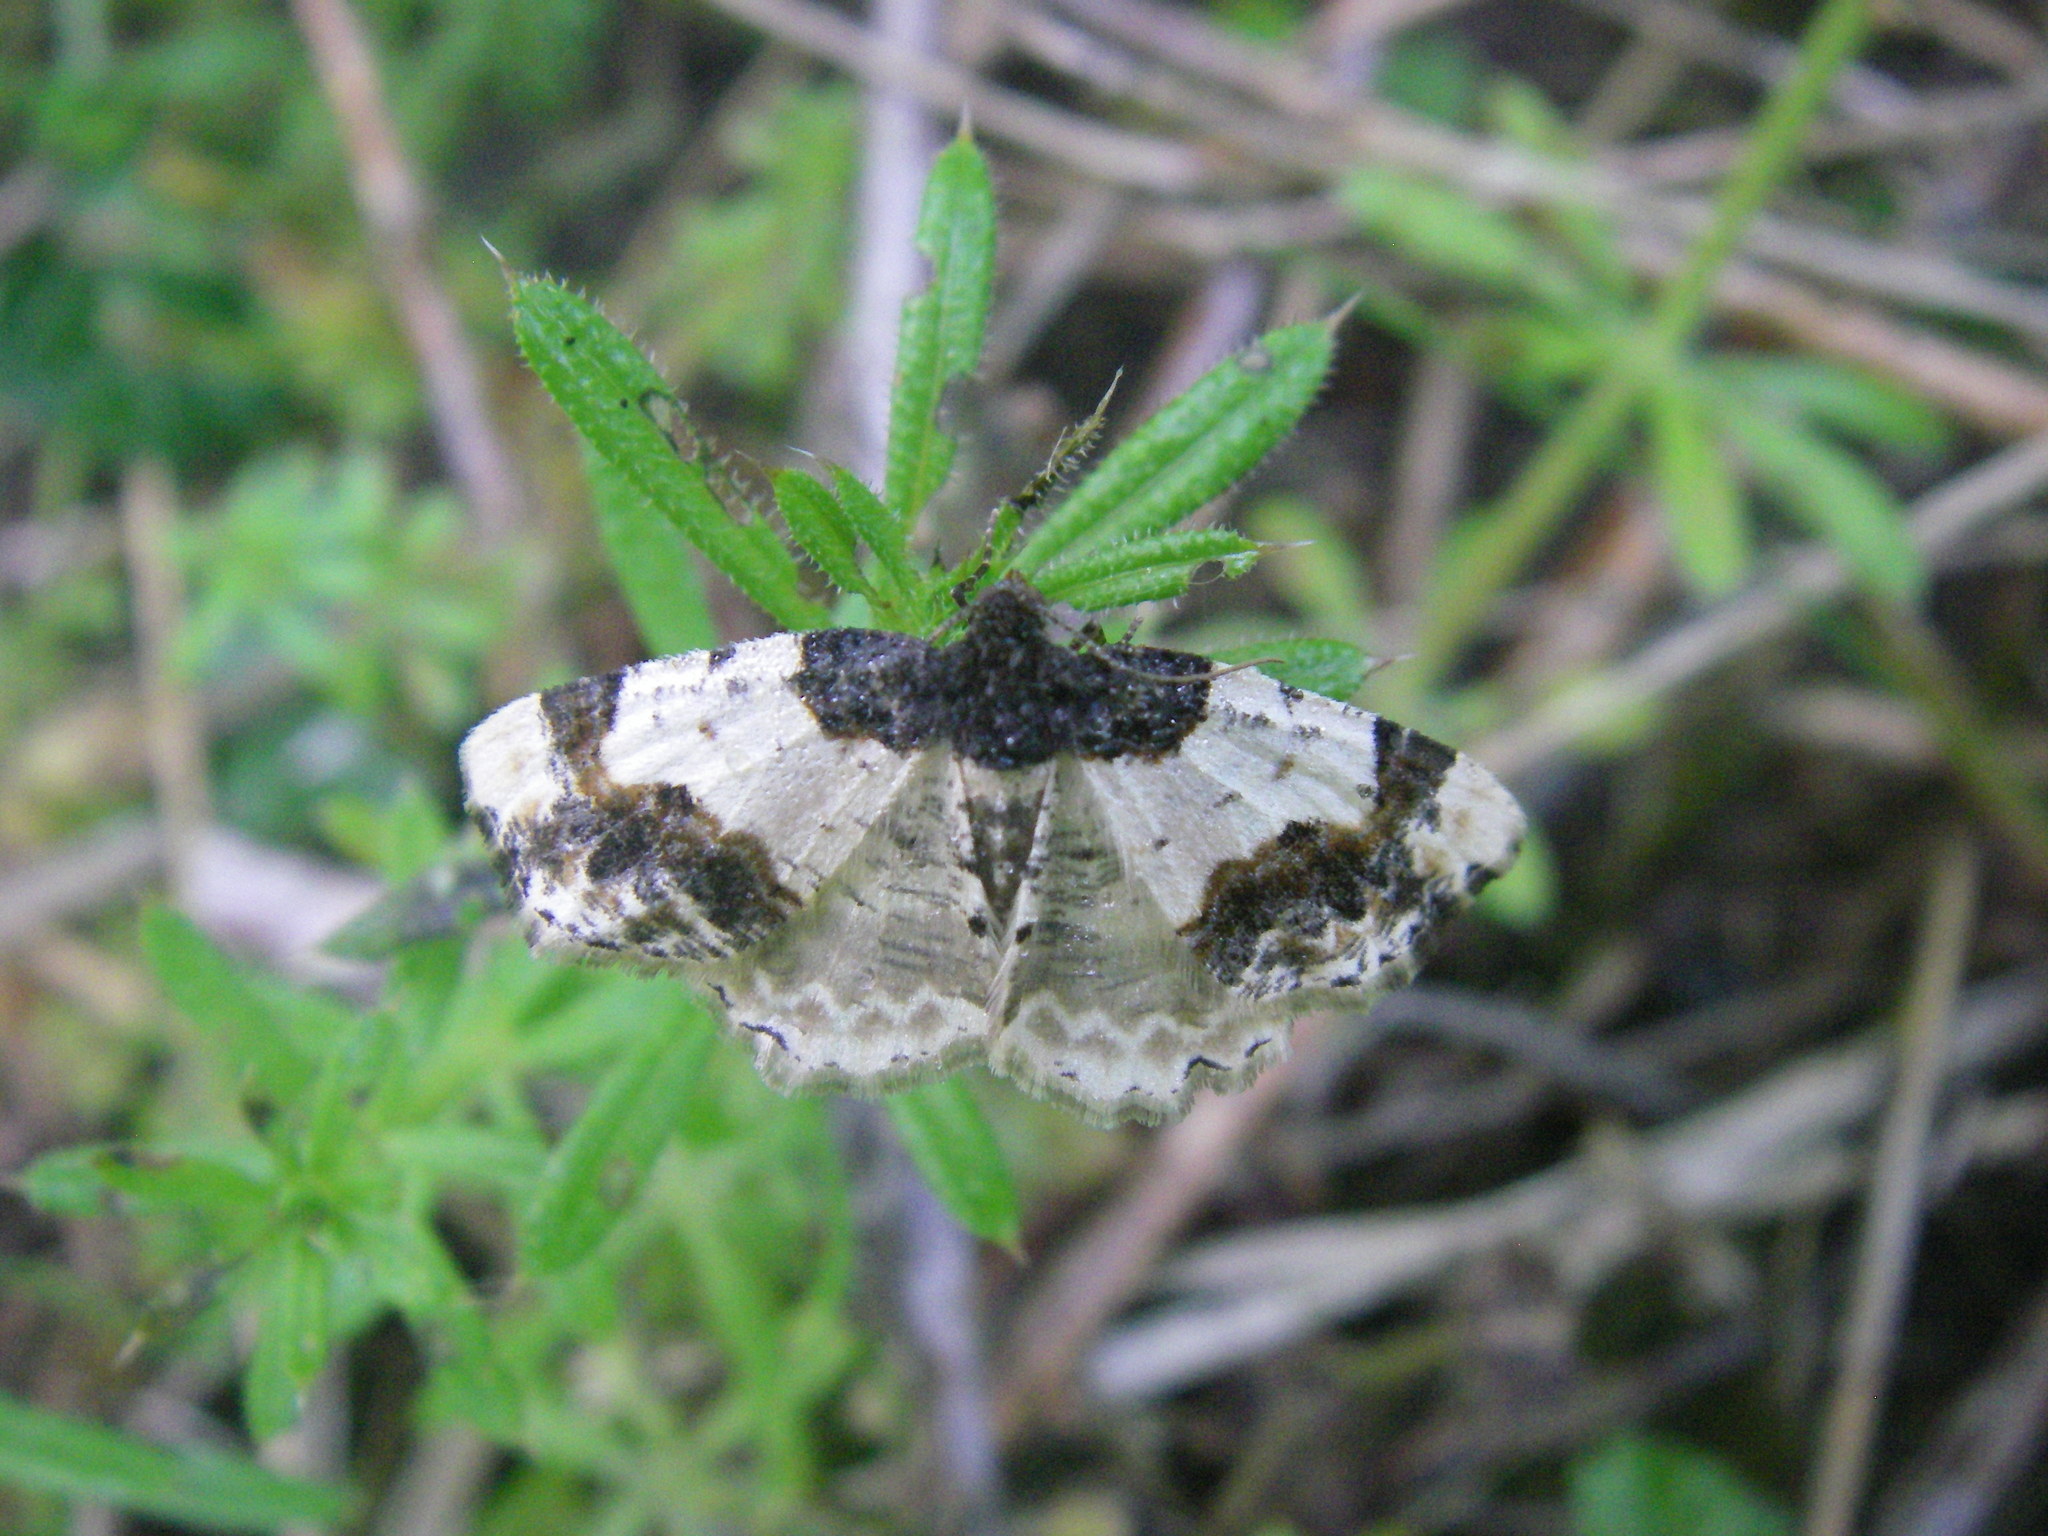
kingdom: Animalia
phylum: Arthropoda
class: Insecta
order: Lepidoptera
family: Geometridae
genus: Ligdia
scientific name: Ligdia adustata
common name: Scorched carpet
